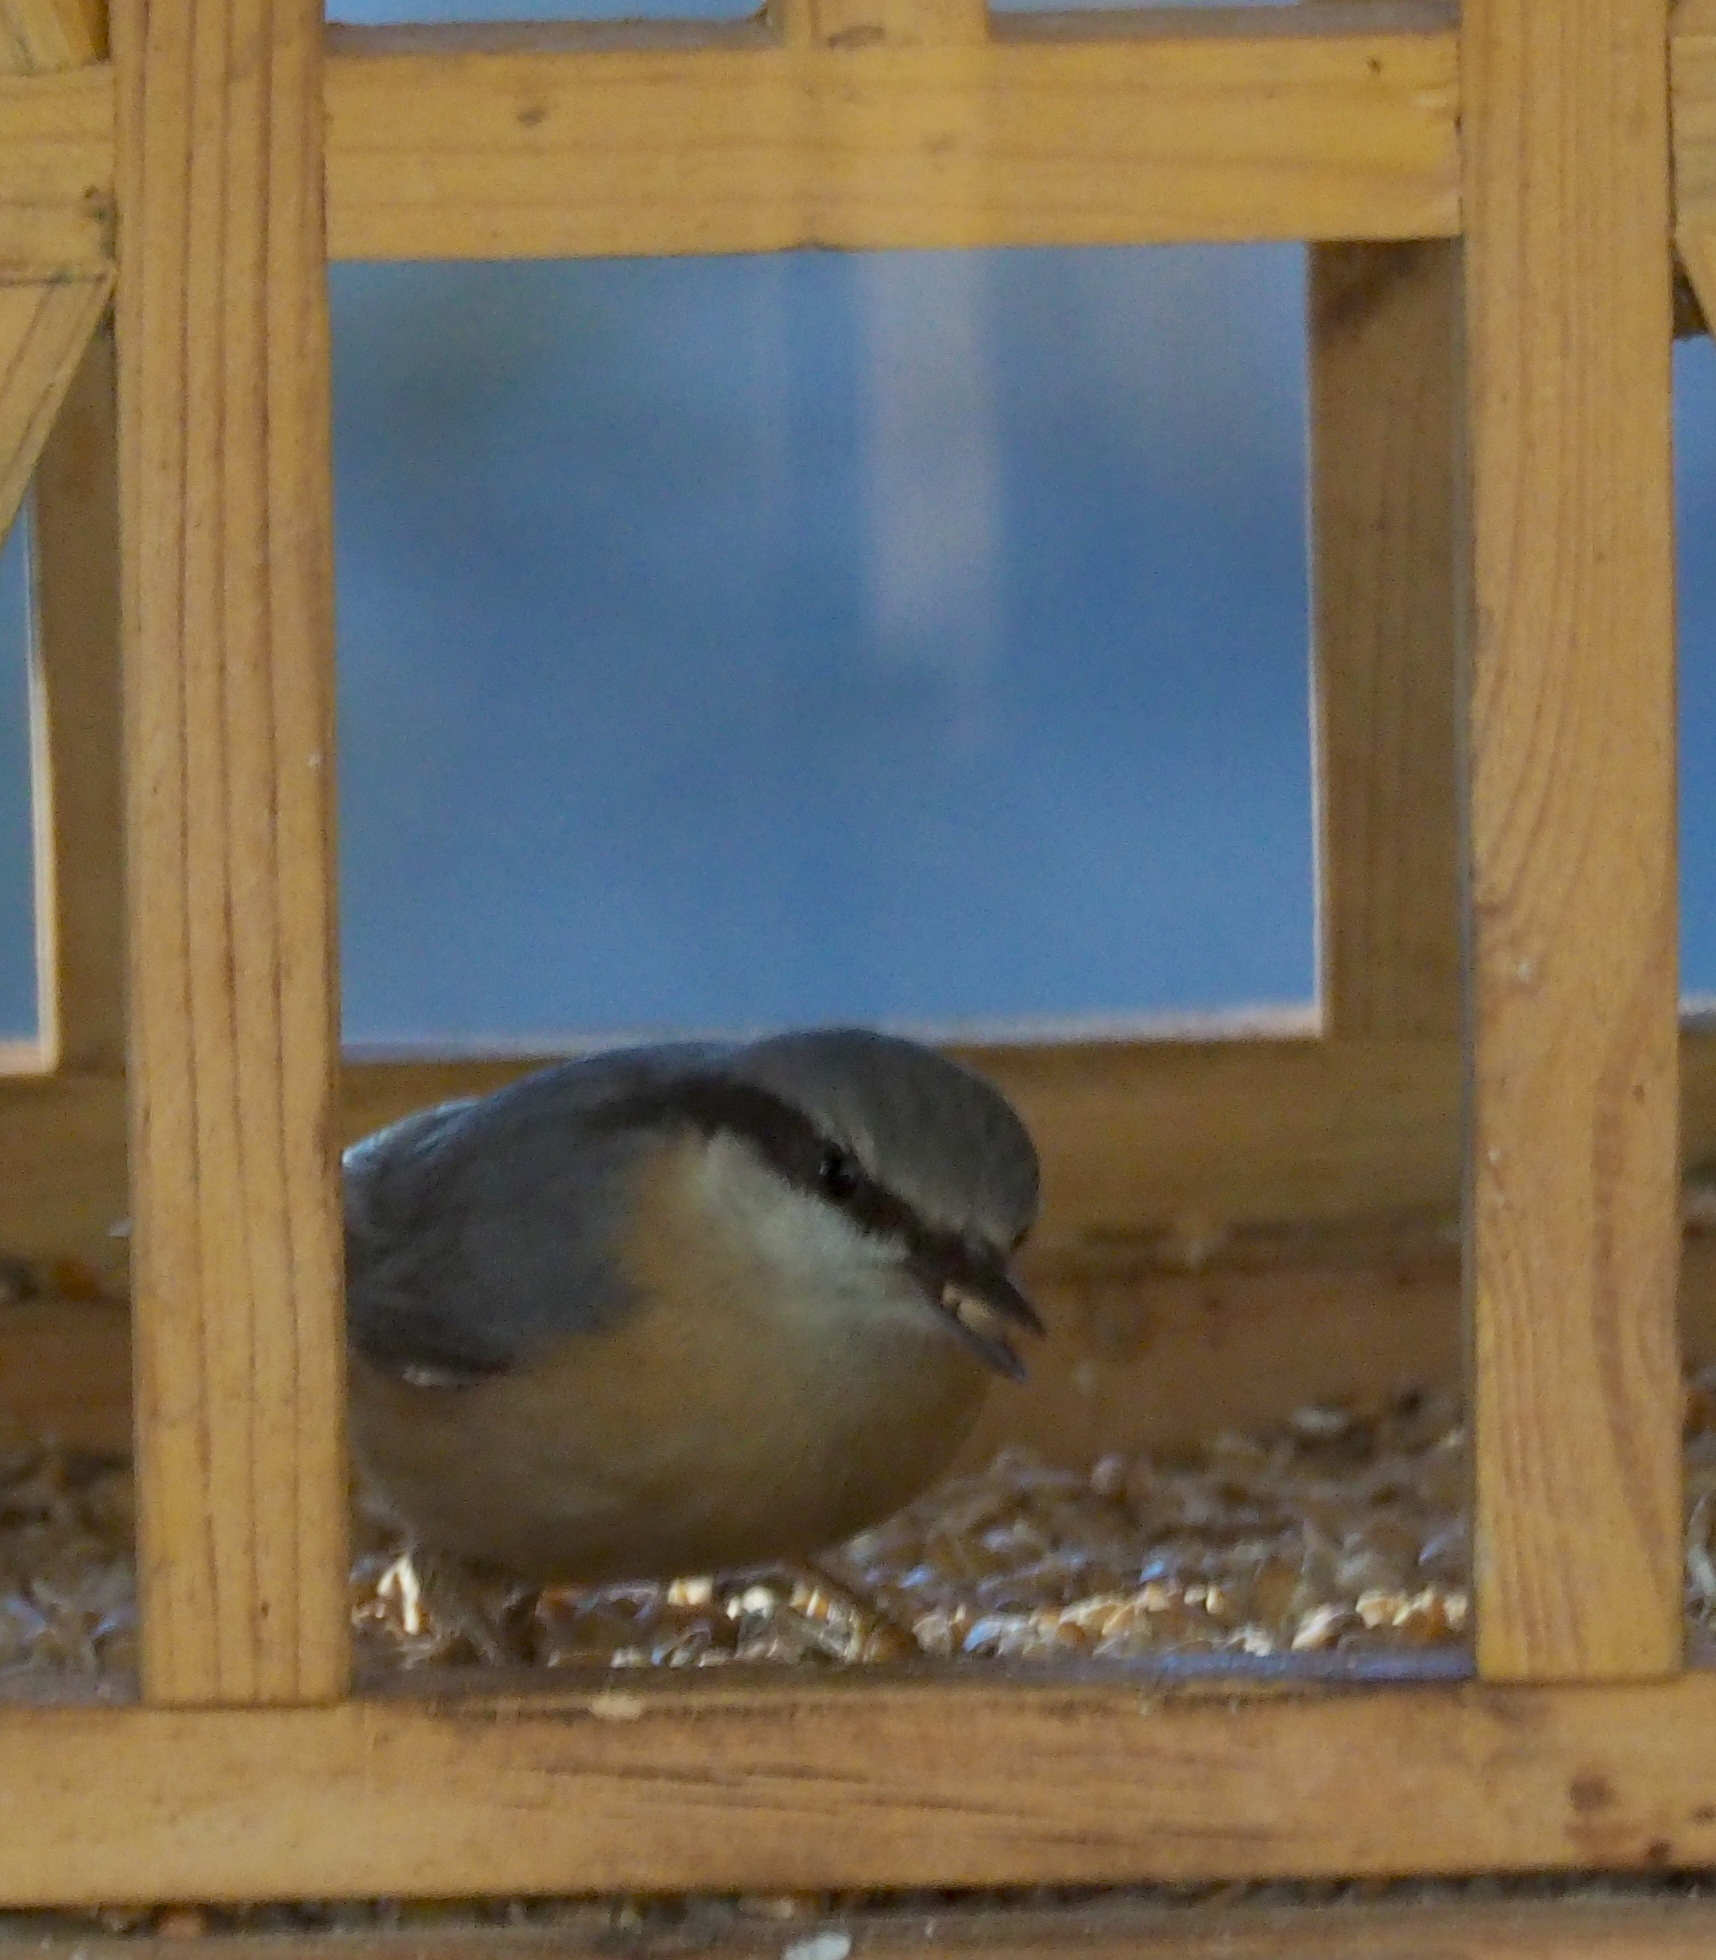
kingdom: Animalia
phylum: Chordata
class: Aves
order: Passeriformes
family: Sittidae
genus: Sitta
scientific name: Sitta europaea
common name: Eurasian nuthatch
